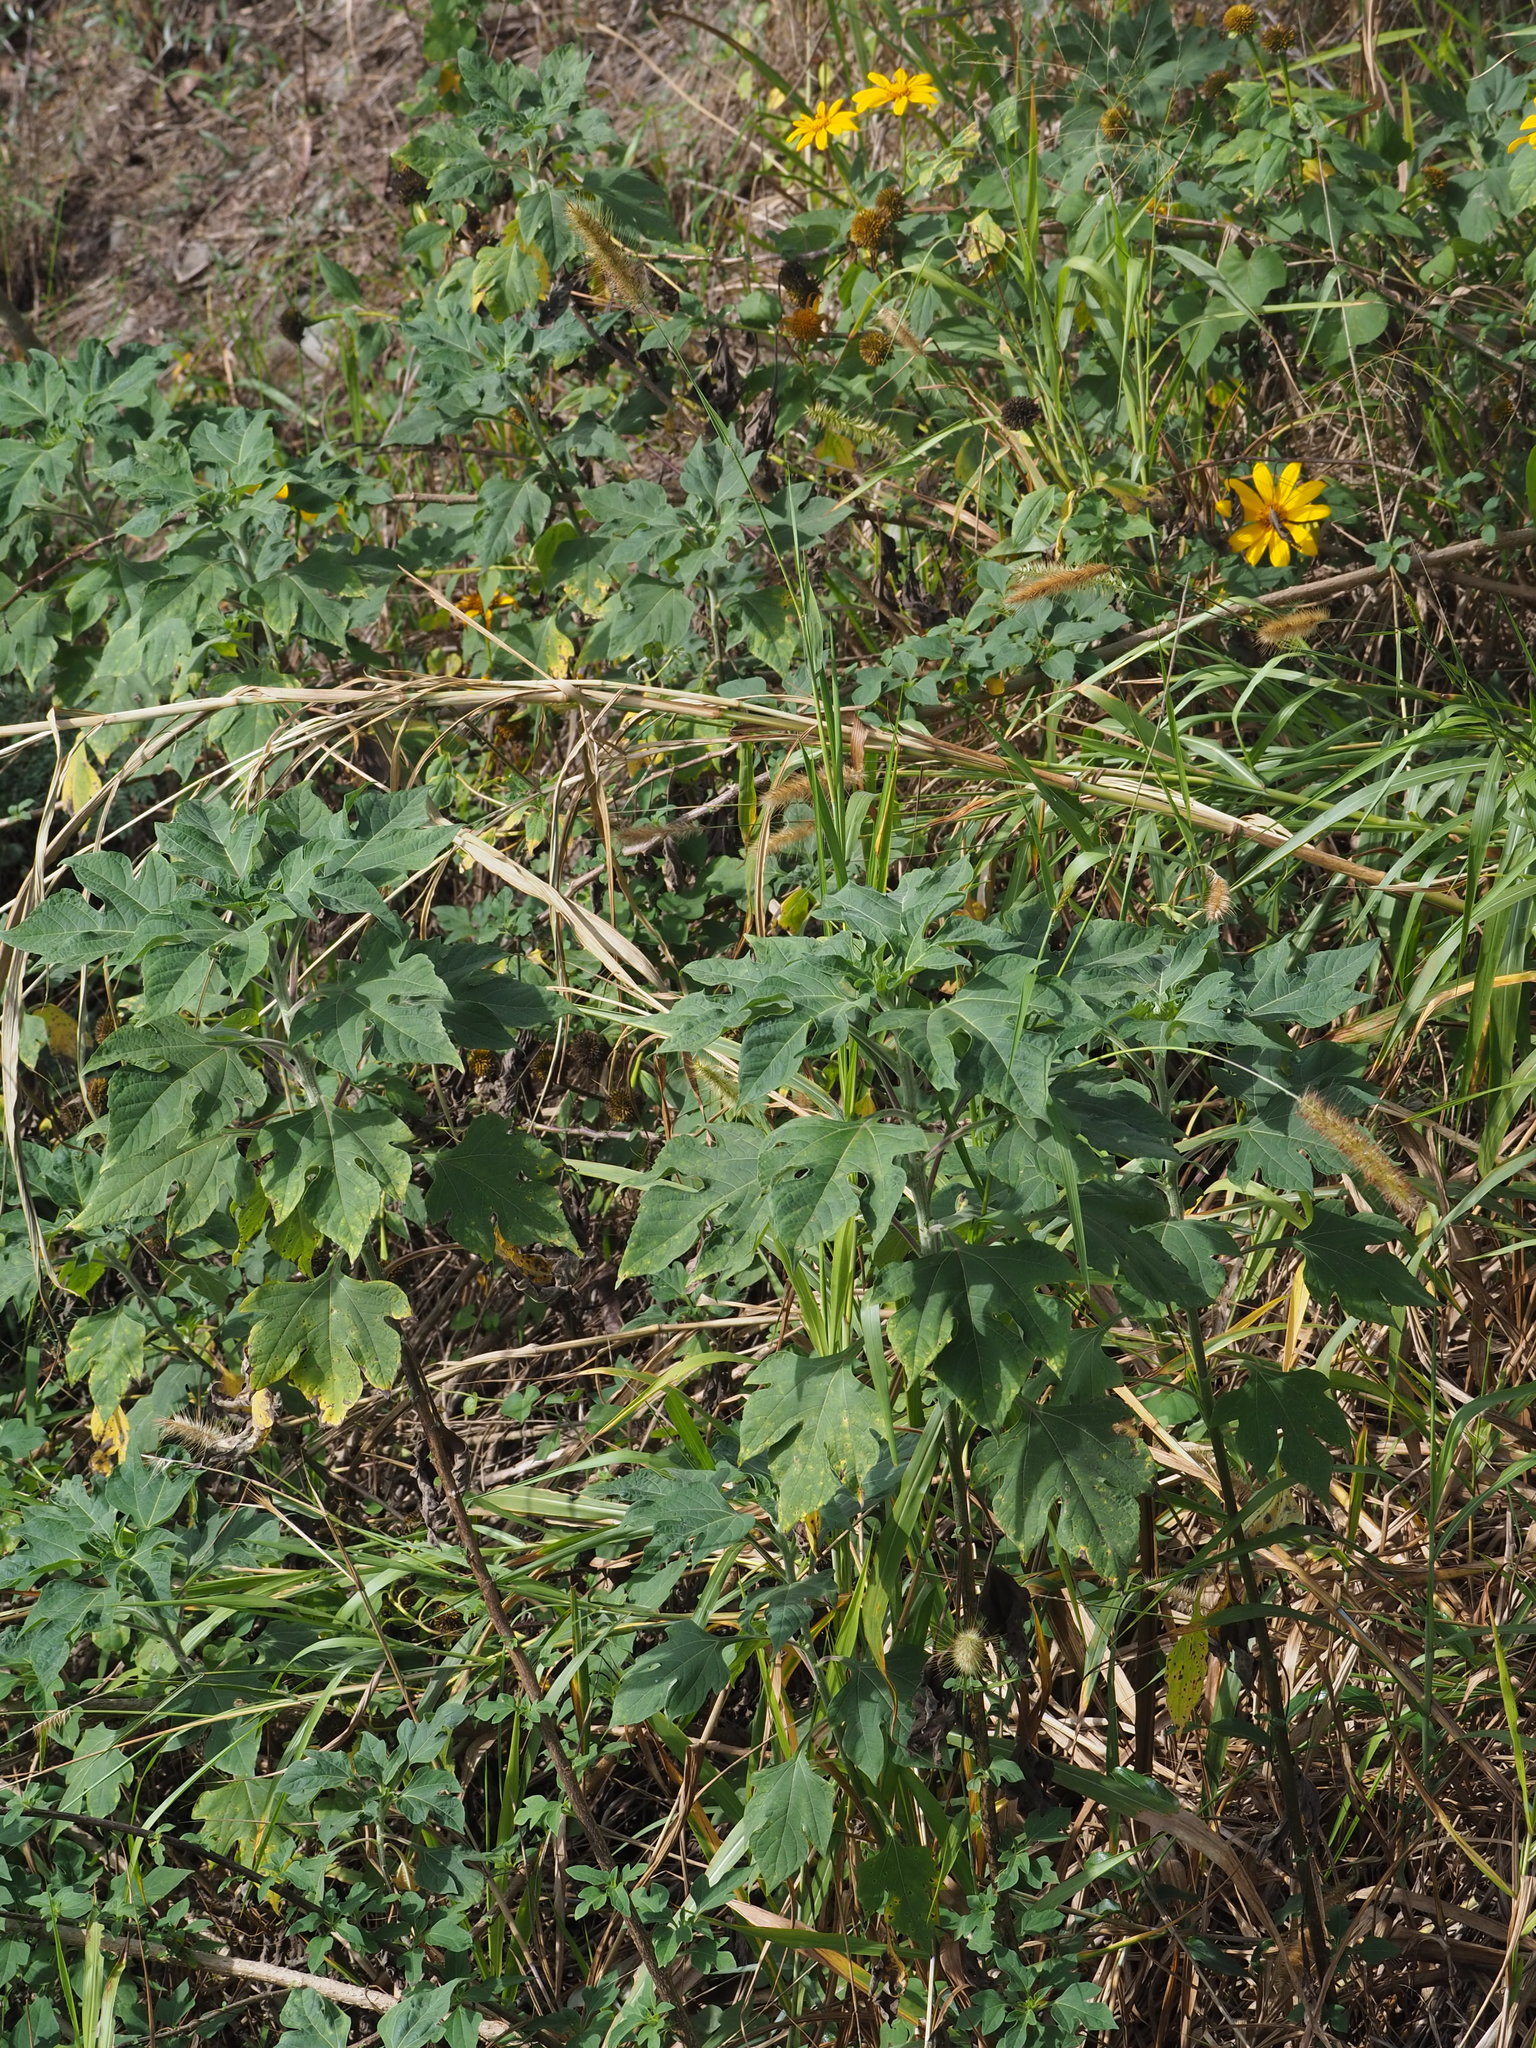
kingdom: Plantae
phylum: Tracheophyta
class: Magnoliopsida
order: Asterales
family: Asteraceae
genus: Tithonia
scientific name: Tithonia diversifolia
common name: Tree marigold
